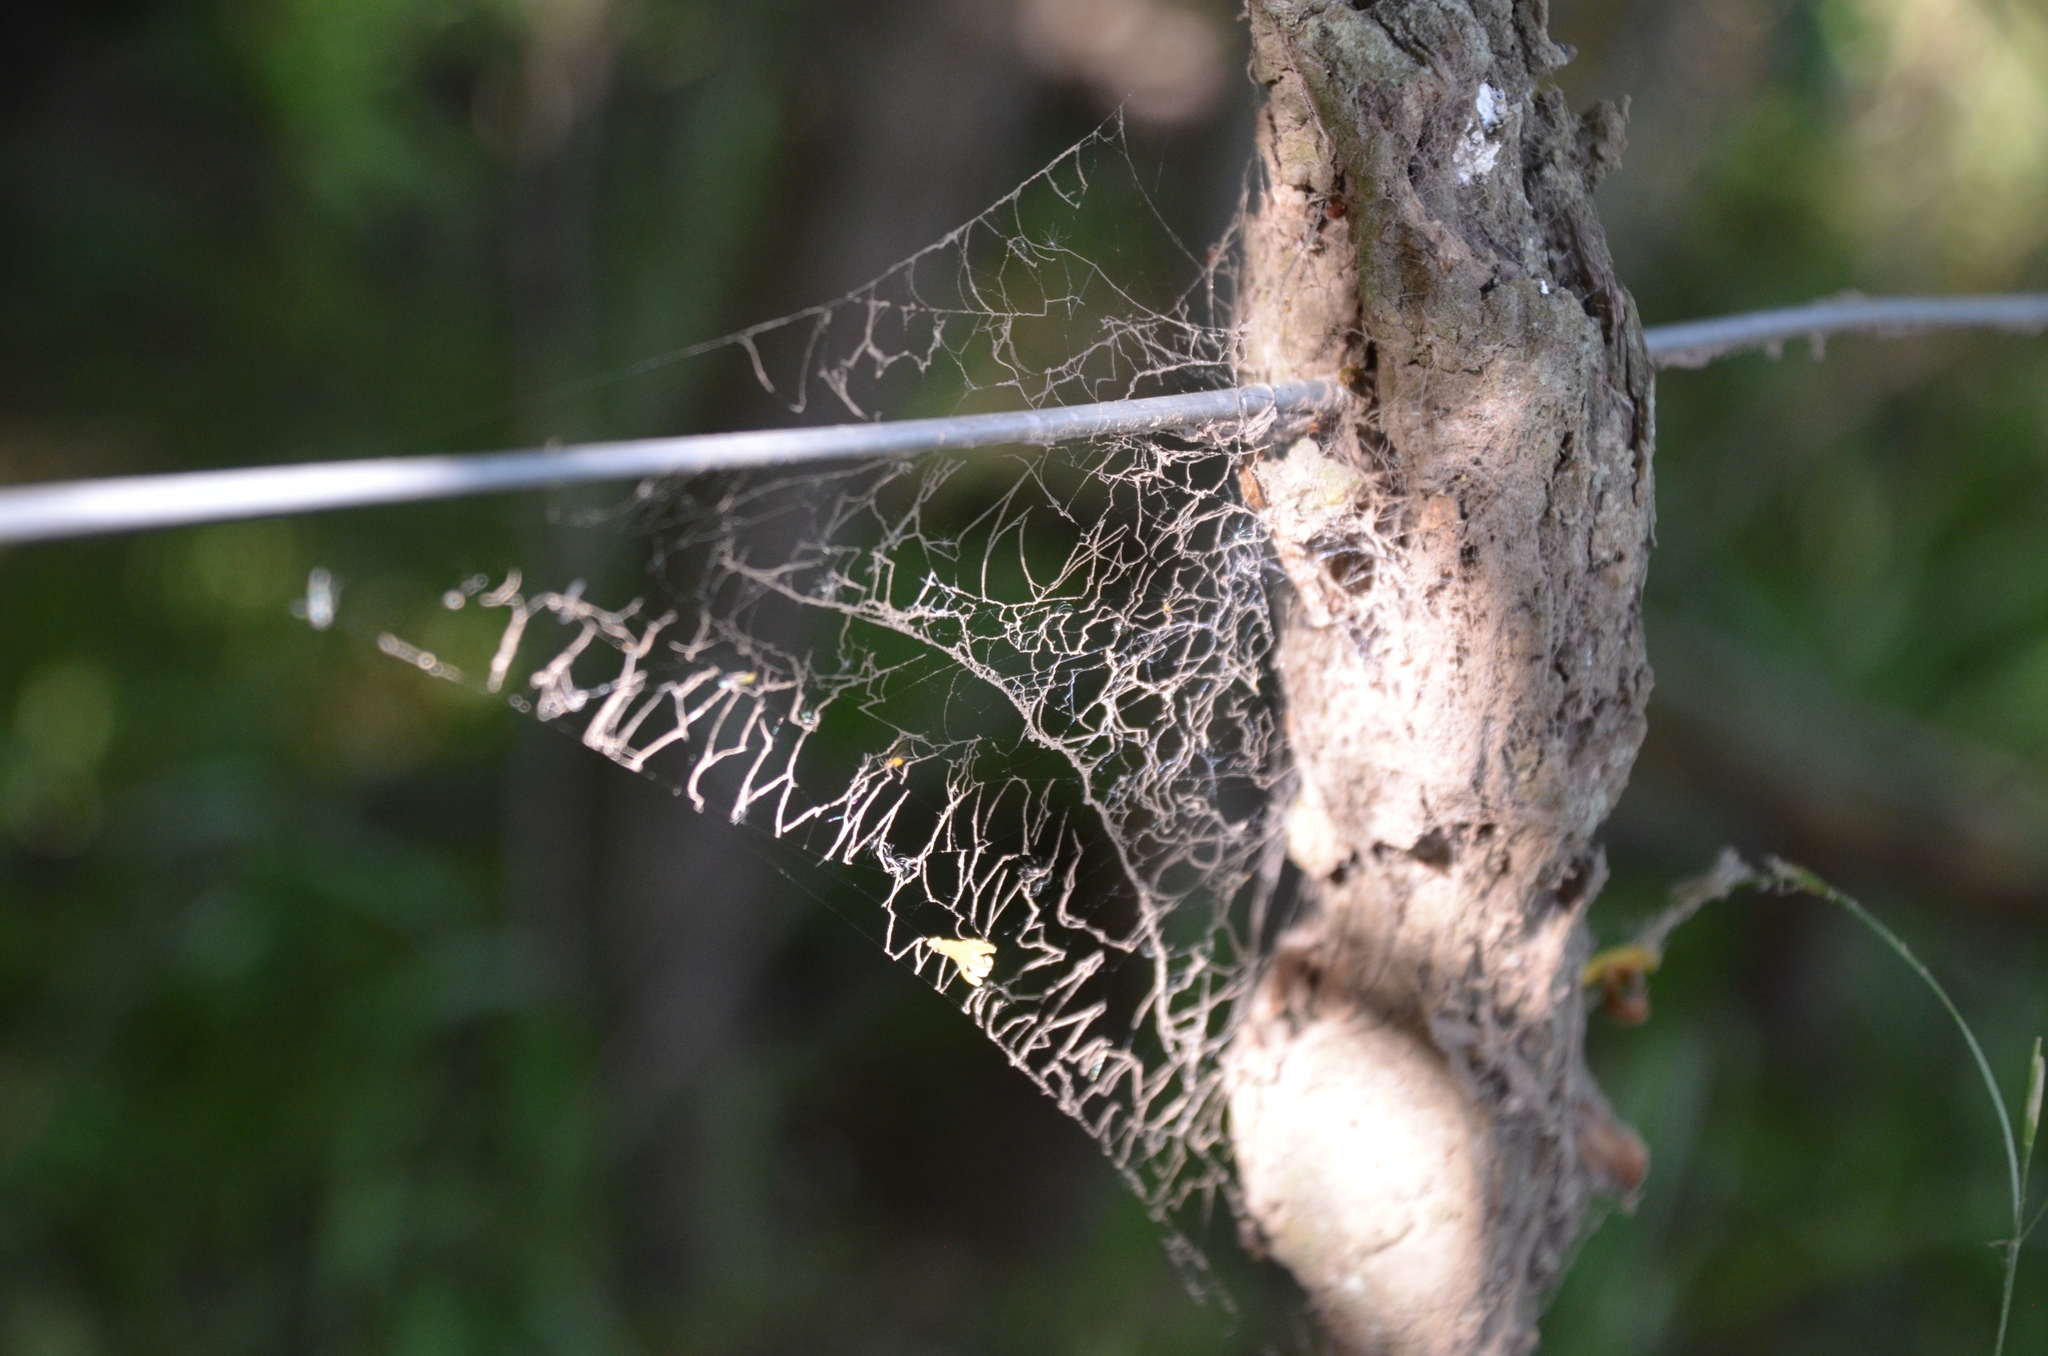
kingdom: Animalia
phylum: Arthropoda
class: Arachnida
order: Araneae
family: Desidae
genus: Badumna
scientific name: Badumna longinqua
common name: Gray house spider
